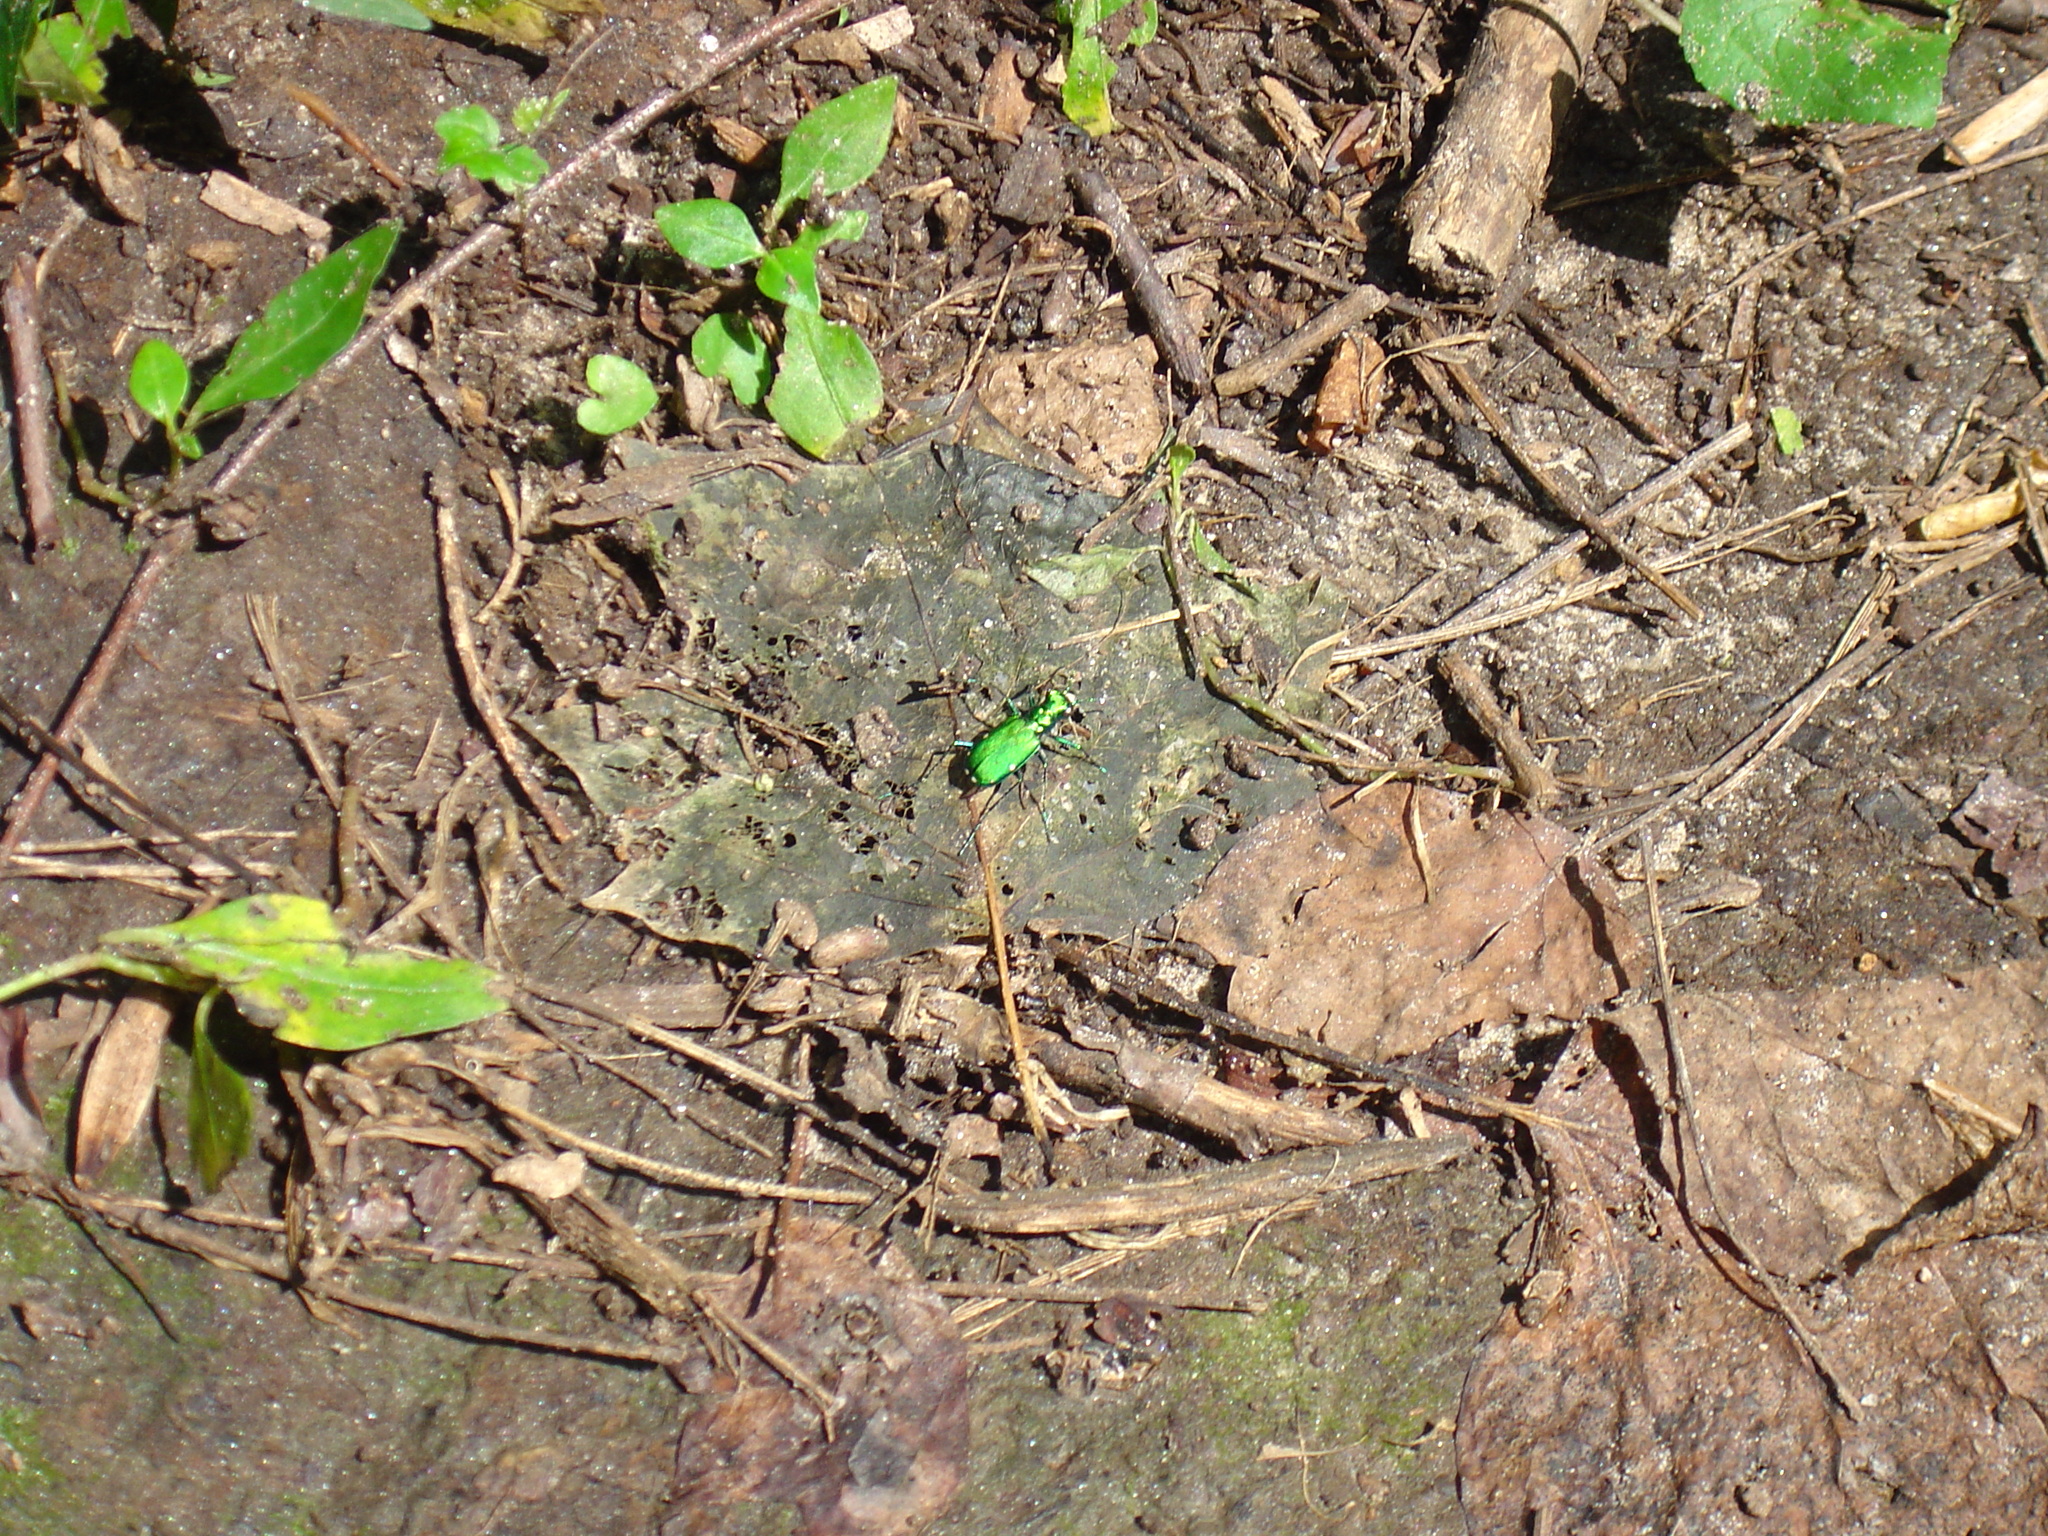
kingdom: Animalia
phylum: Arthropoda
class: Insecta
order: Coleoptera
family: Carabidae
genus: Cicindela
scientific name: Cicindela sexguttata
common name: Six-spotted tiger beetle
